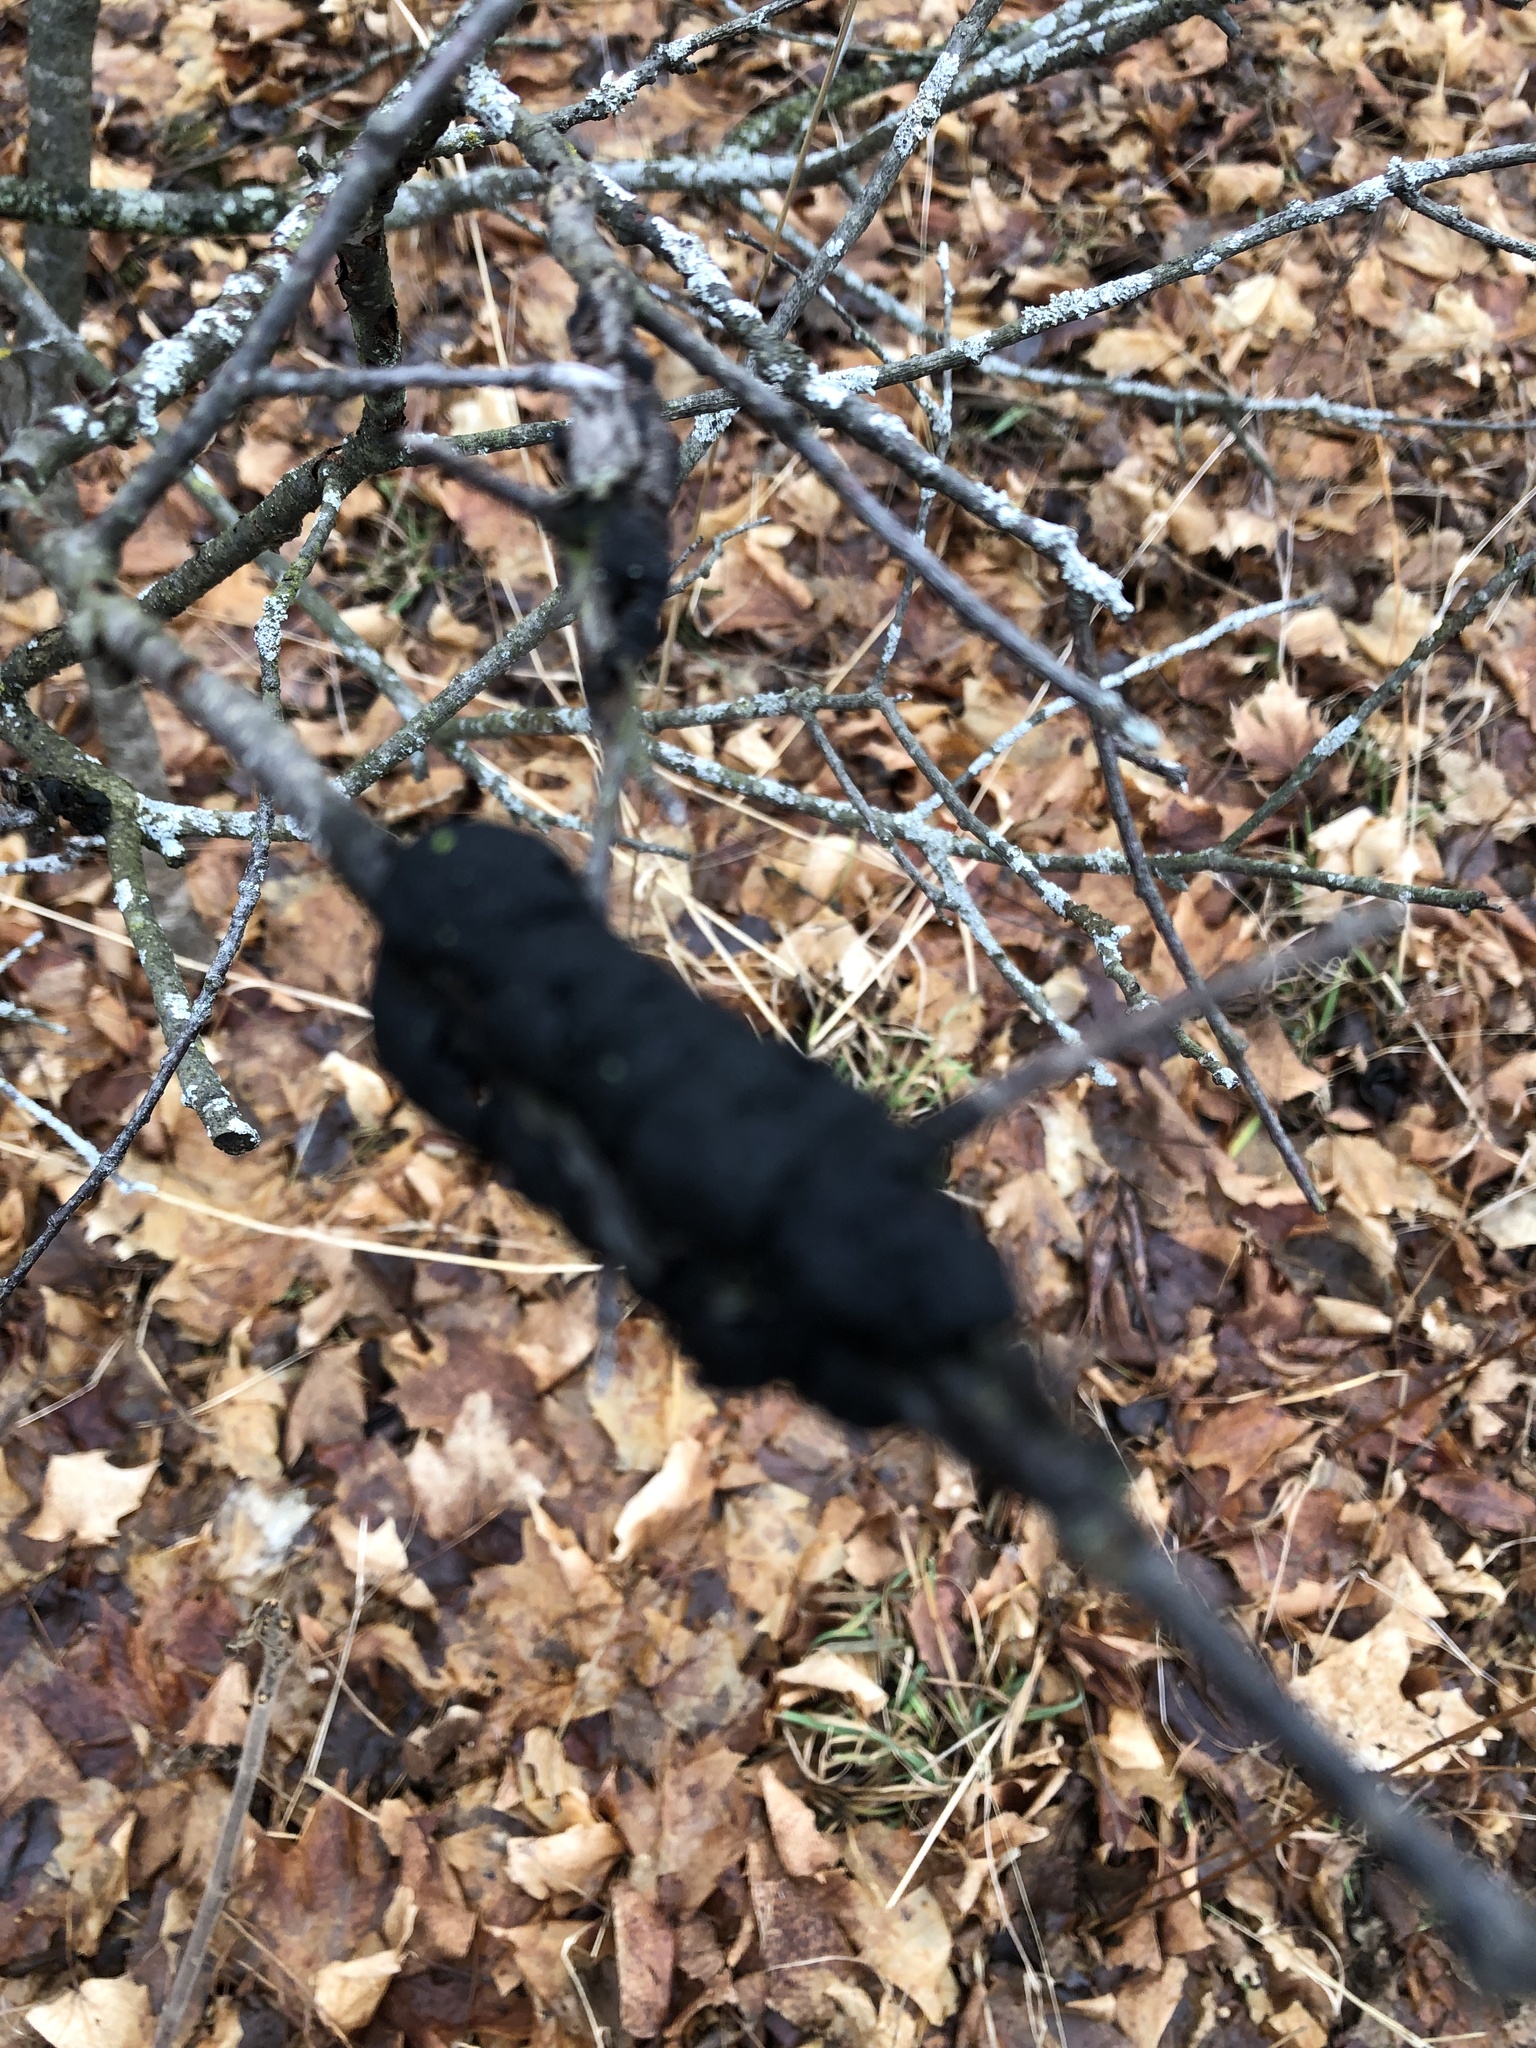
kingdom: Fungi
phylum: Ascomycota
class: Dothideomycetes
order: Venturiales
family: Venturiaceae
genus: Apiosporina
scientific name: Apiosporina morbosa
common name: Black knot
